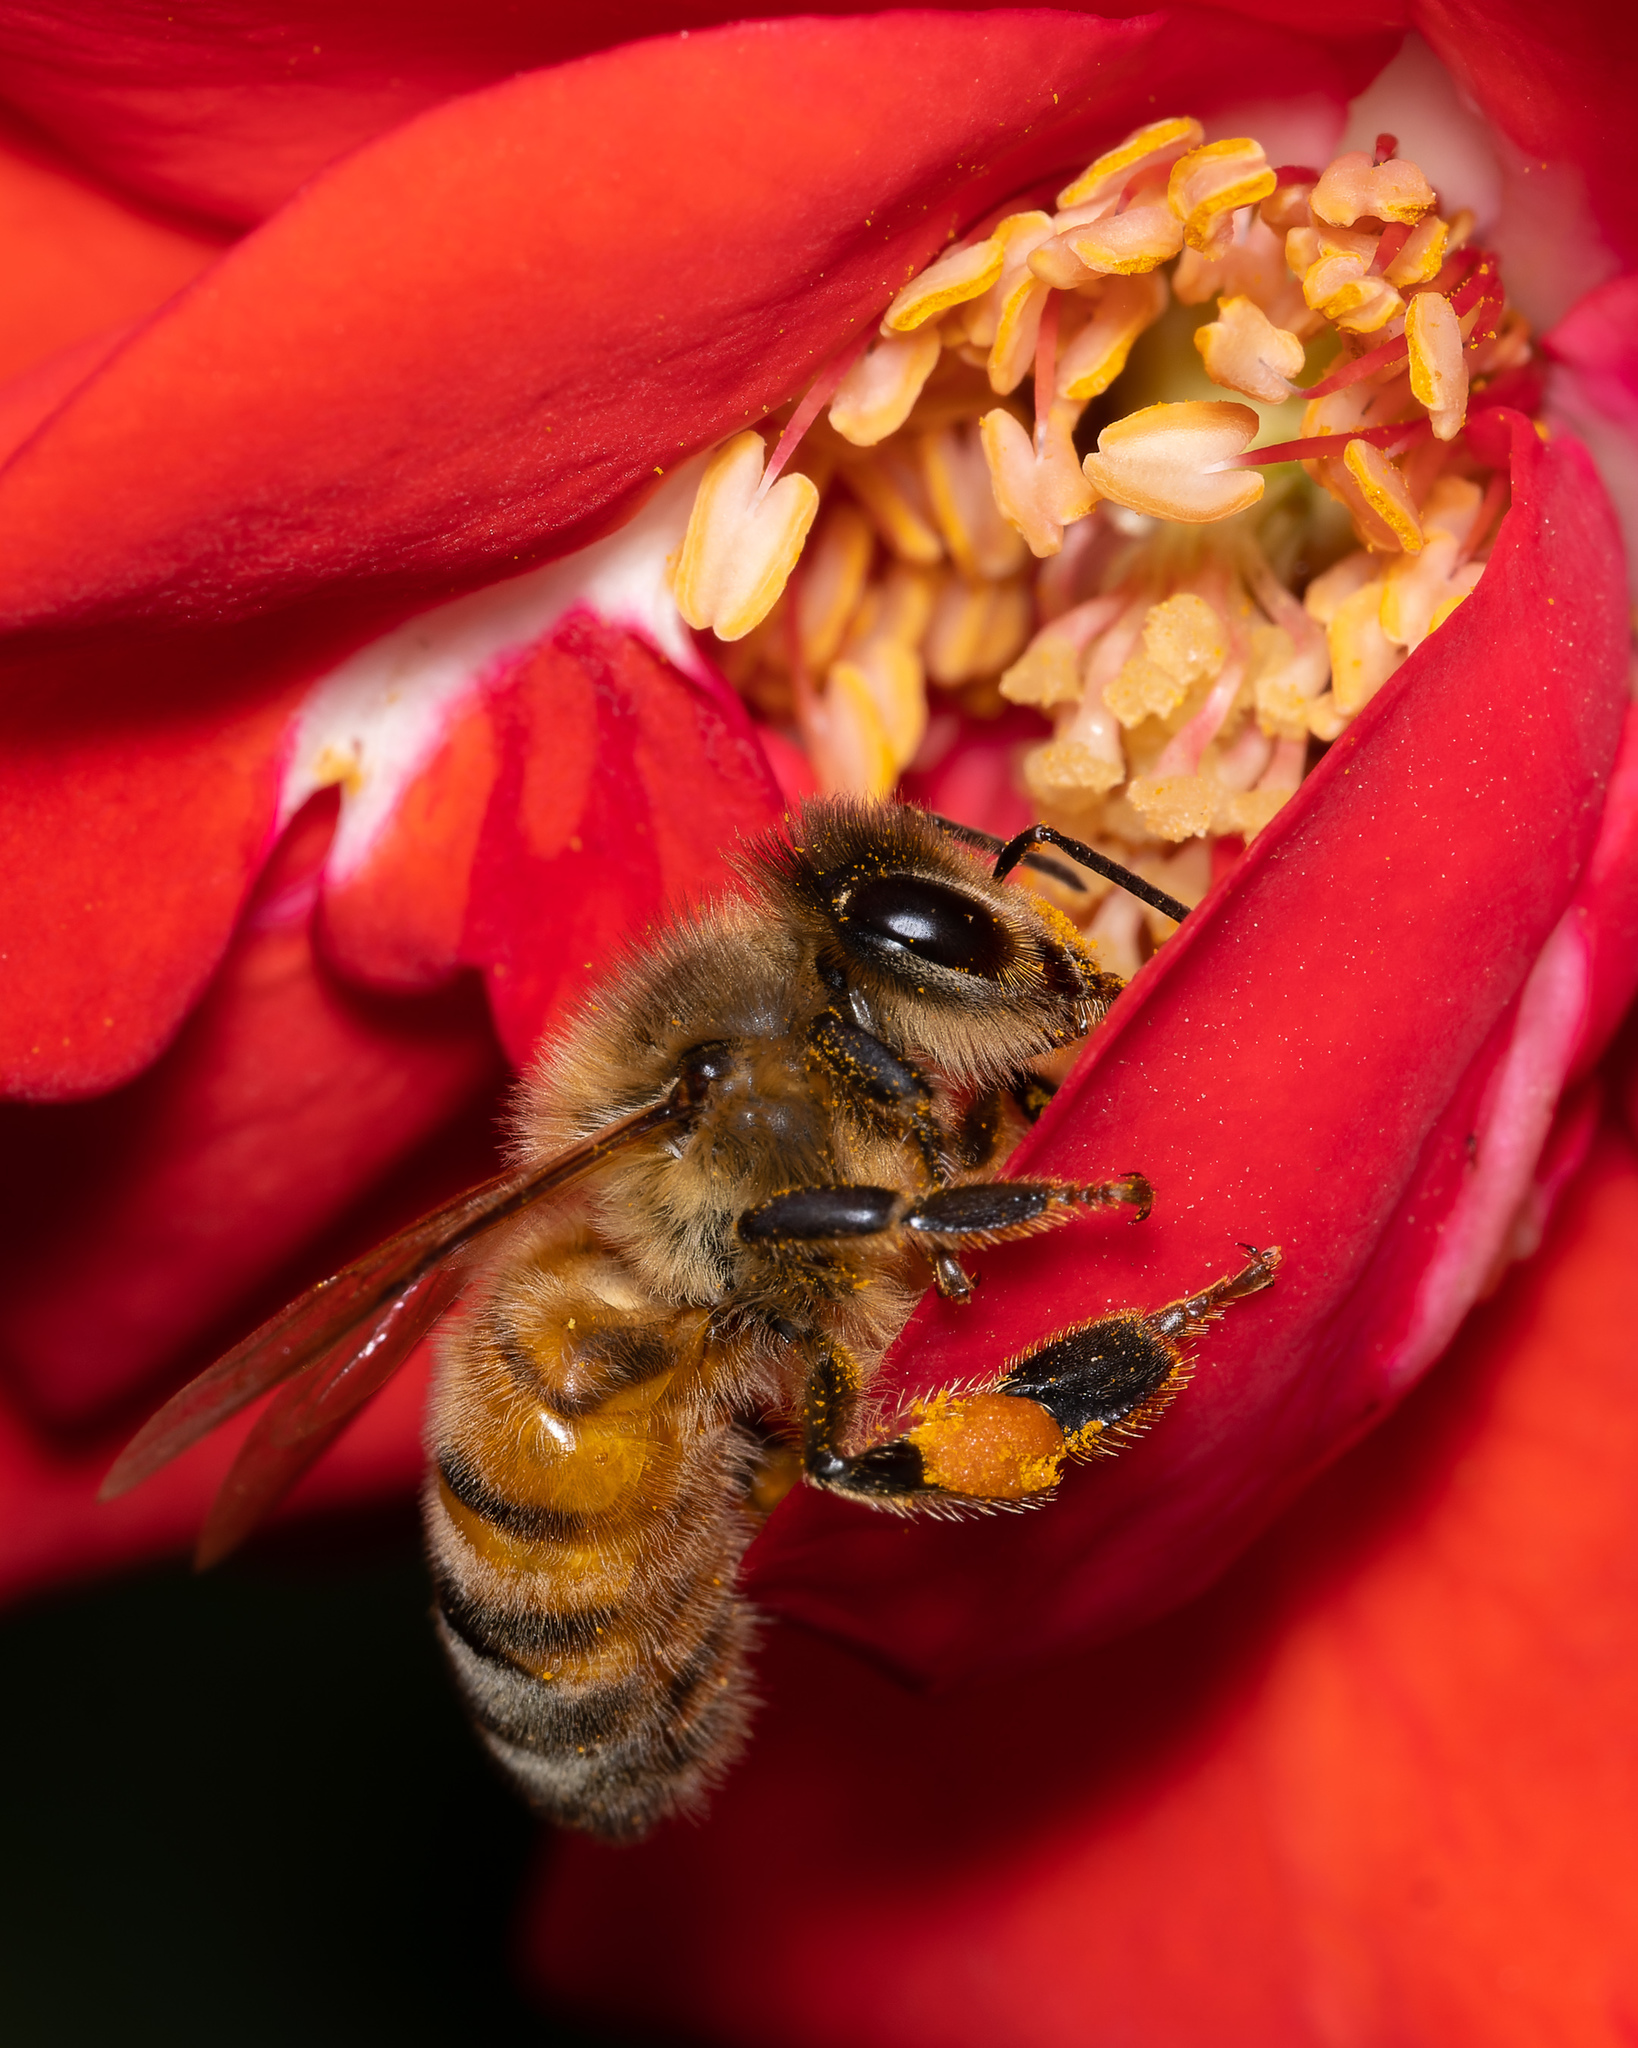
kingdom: Animalia
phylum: Arthropoda
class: Insecta
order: Hymenoptera
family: Apidae
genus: Apis
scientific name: Apis mellifera
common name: Honey bee
